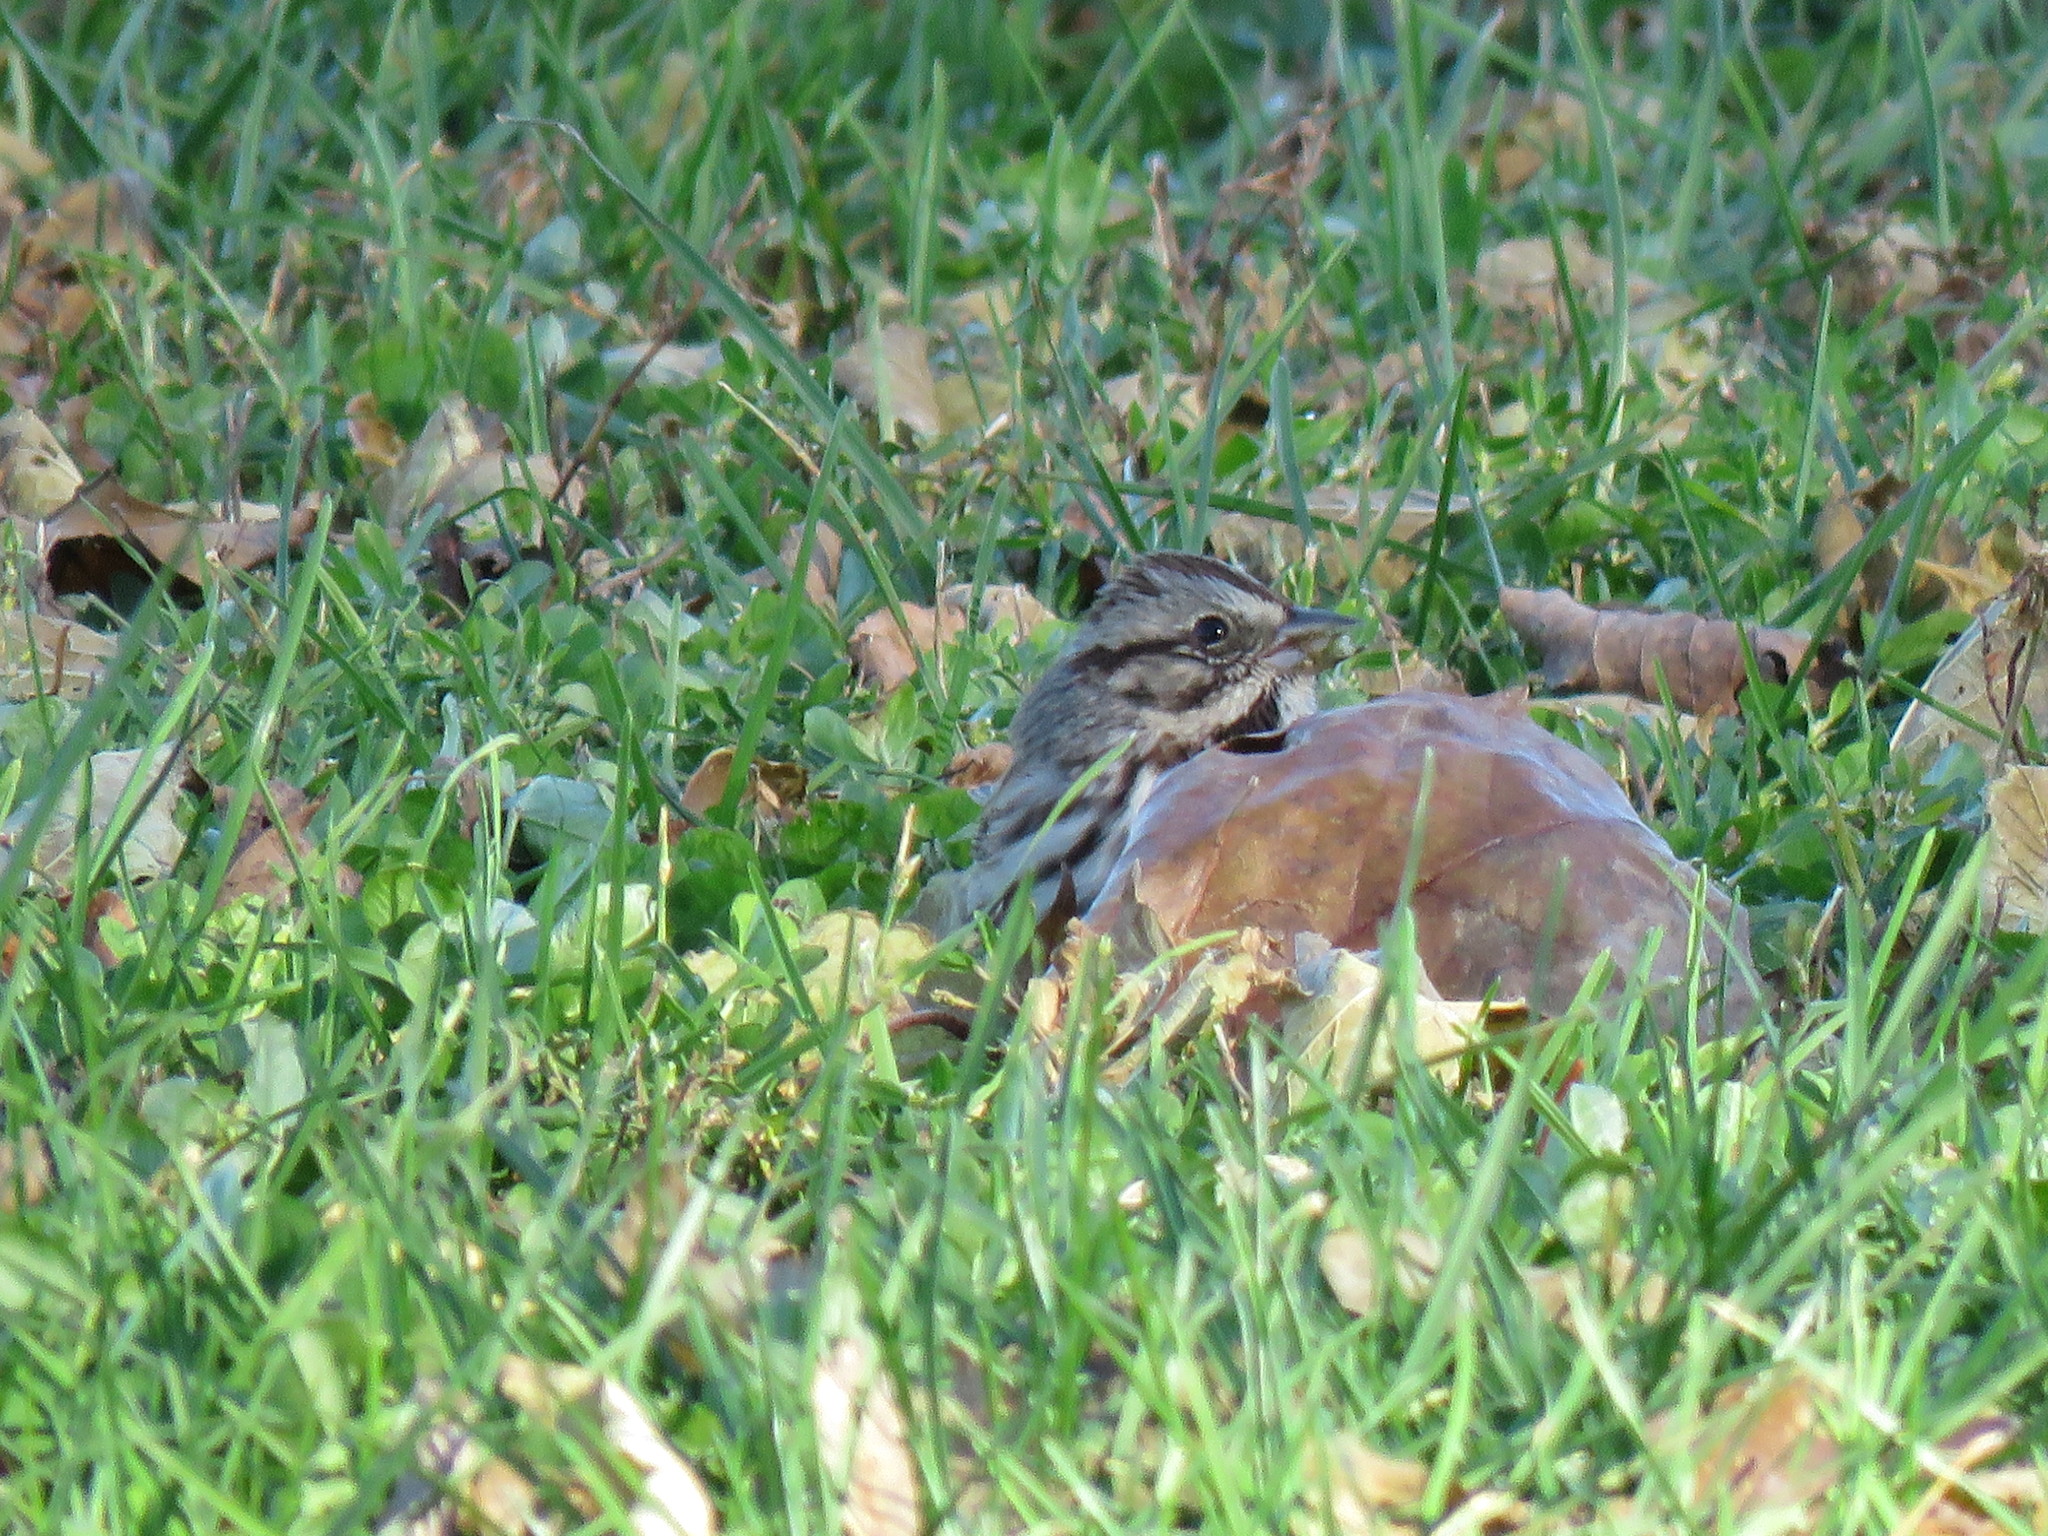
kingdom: Animalia
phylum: Chordata
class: Aves
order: Passeriformes
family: Passerellidae
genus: Melospiza
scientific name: Melospiza melodia
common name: Song sparrow
